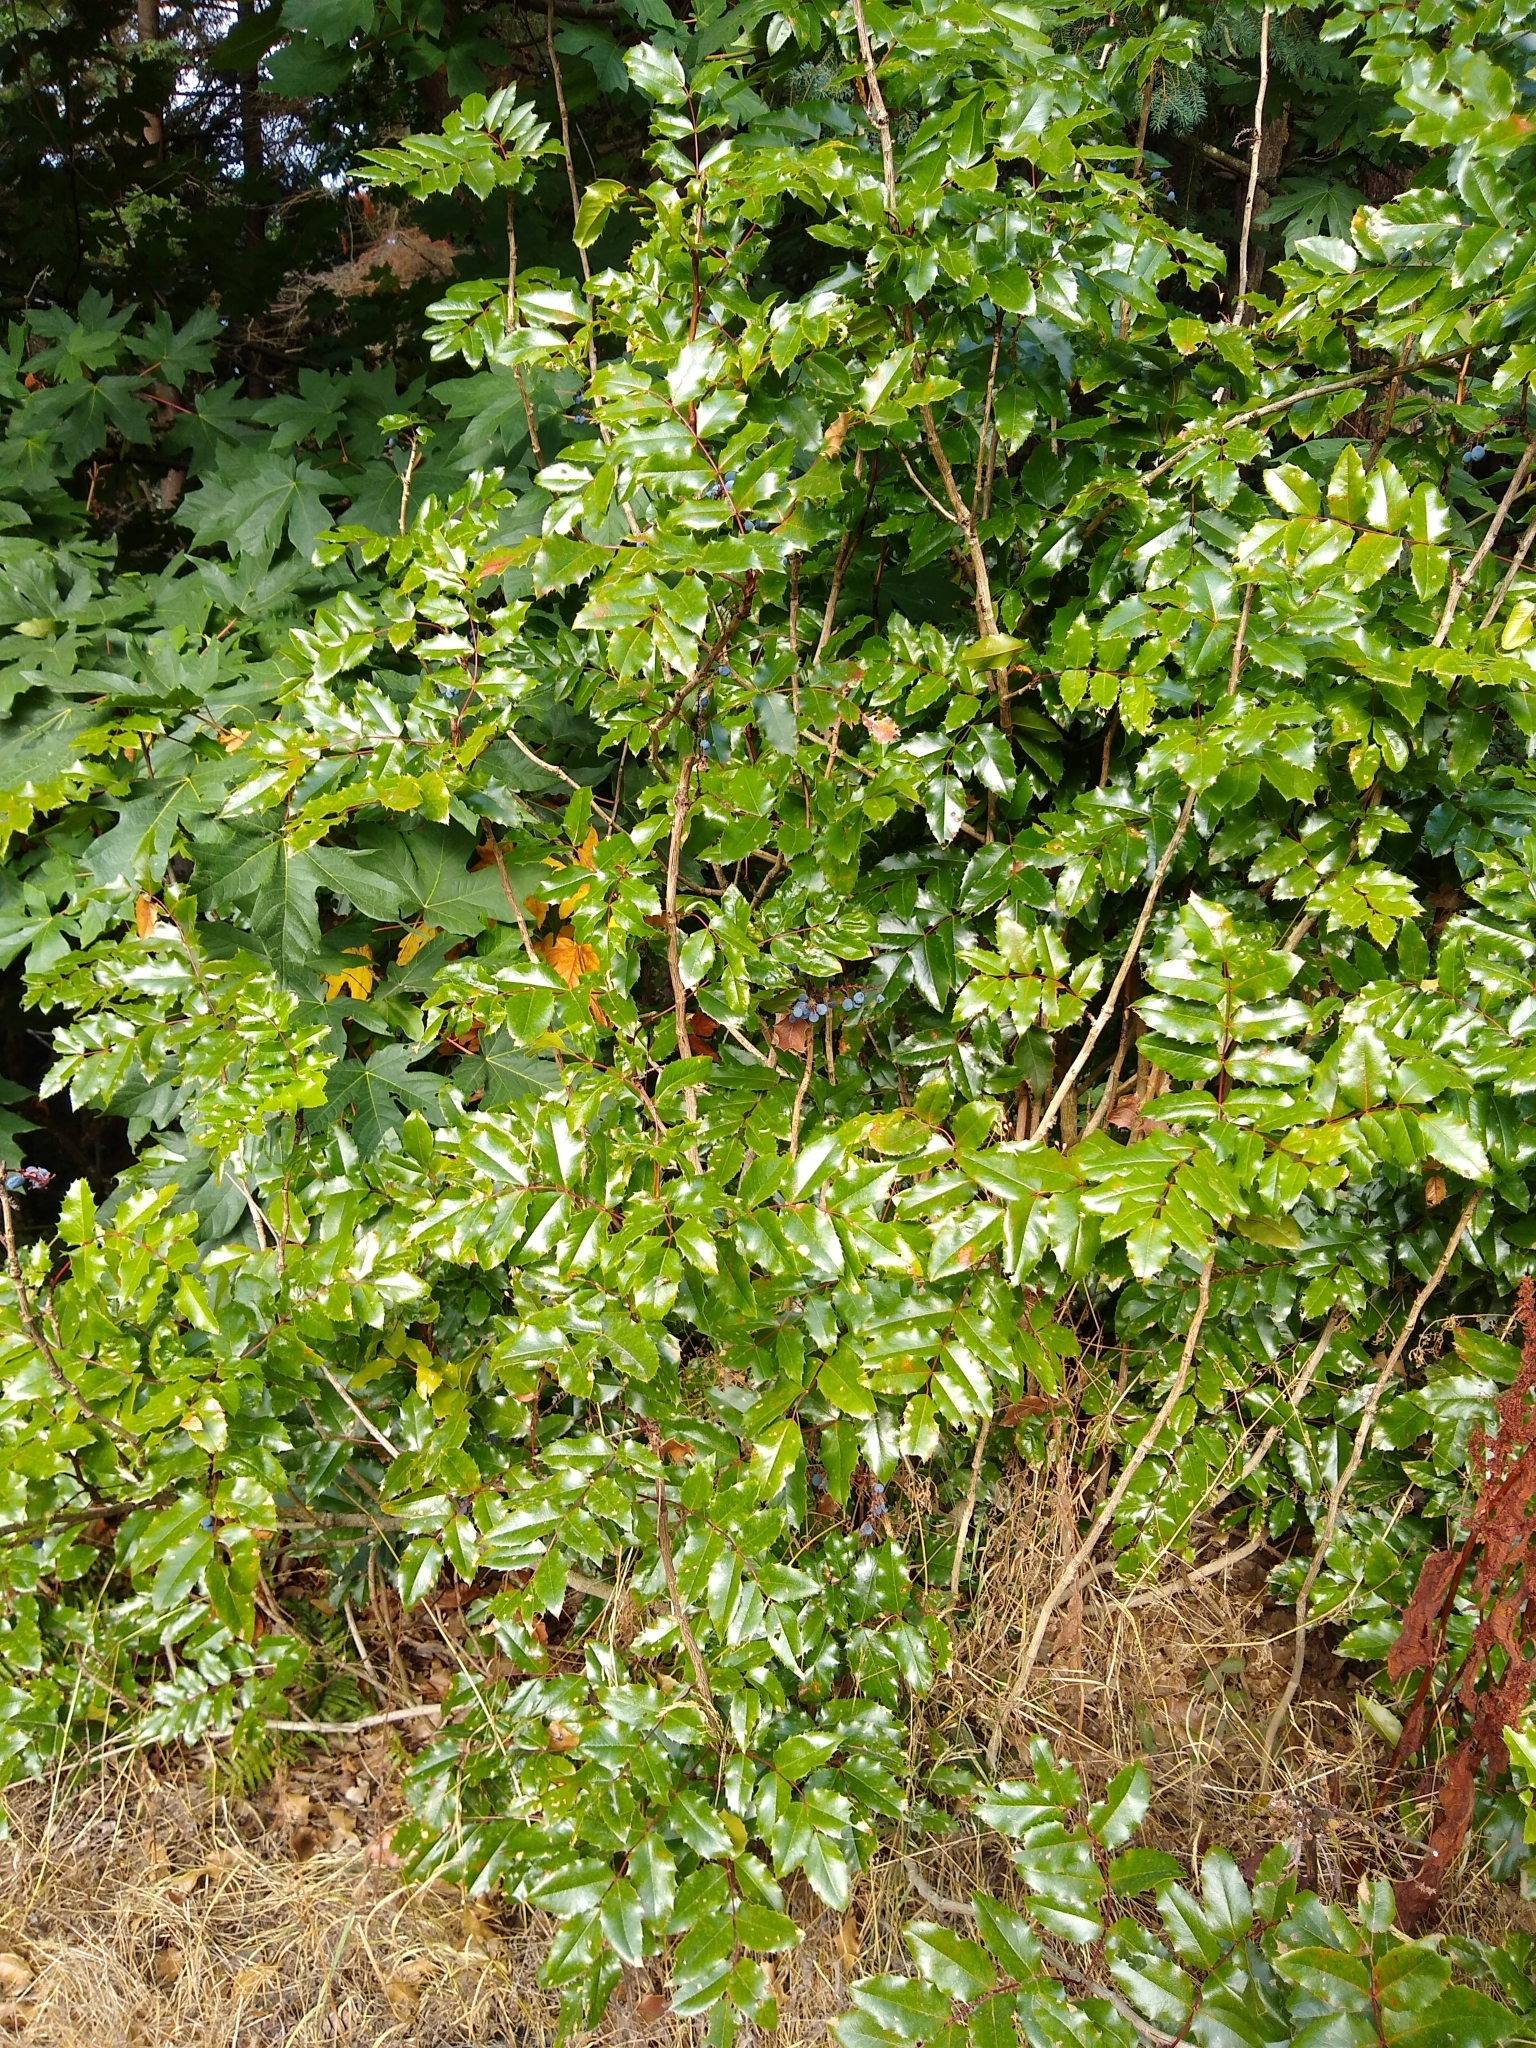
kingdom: Plantae
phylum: Tracheophyta
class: Magnoliopsida
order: Ranunculales
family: Berberidaceae
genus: Mahonia
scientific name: Mahonia aquifolium
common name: Oregon-grape
